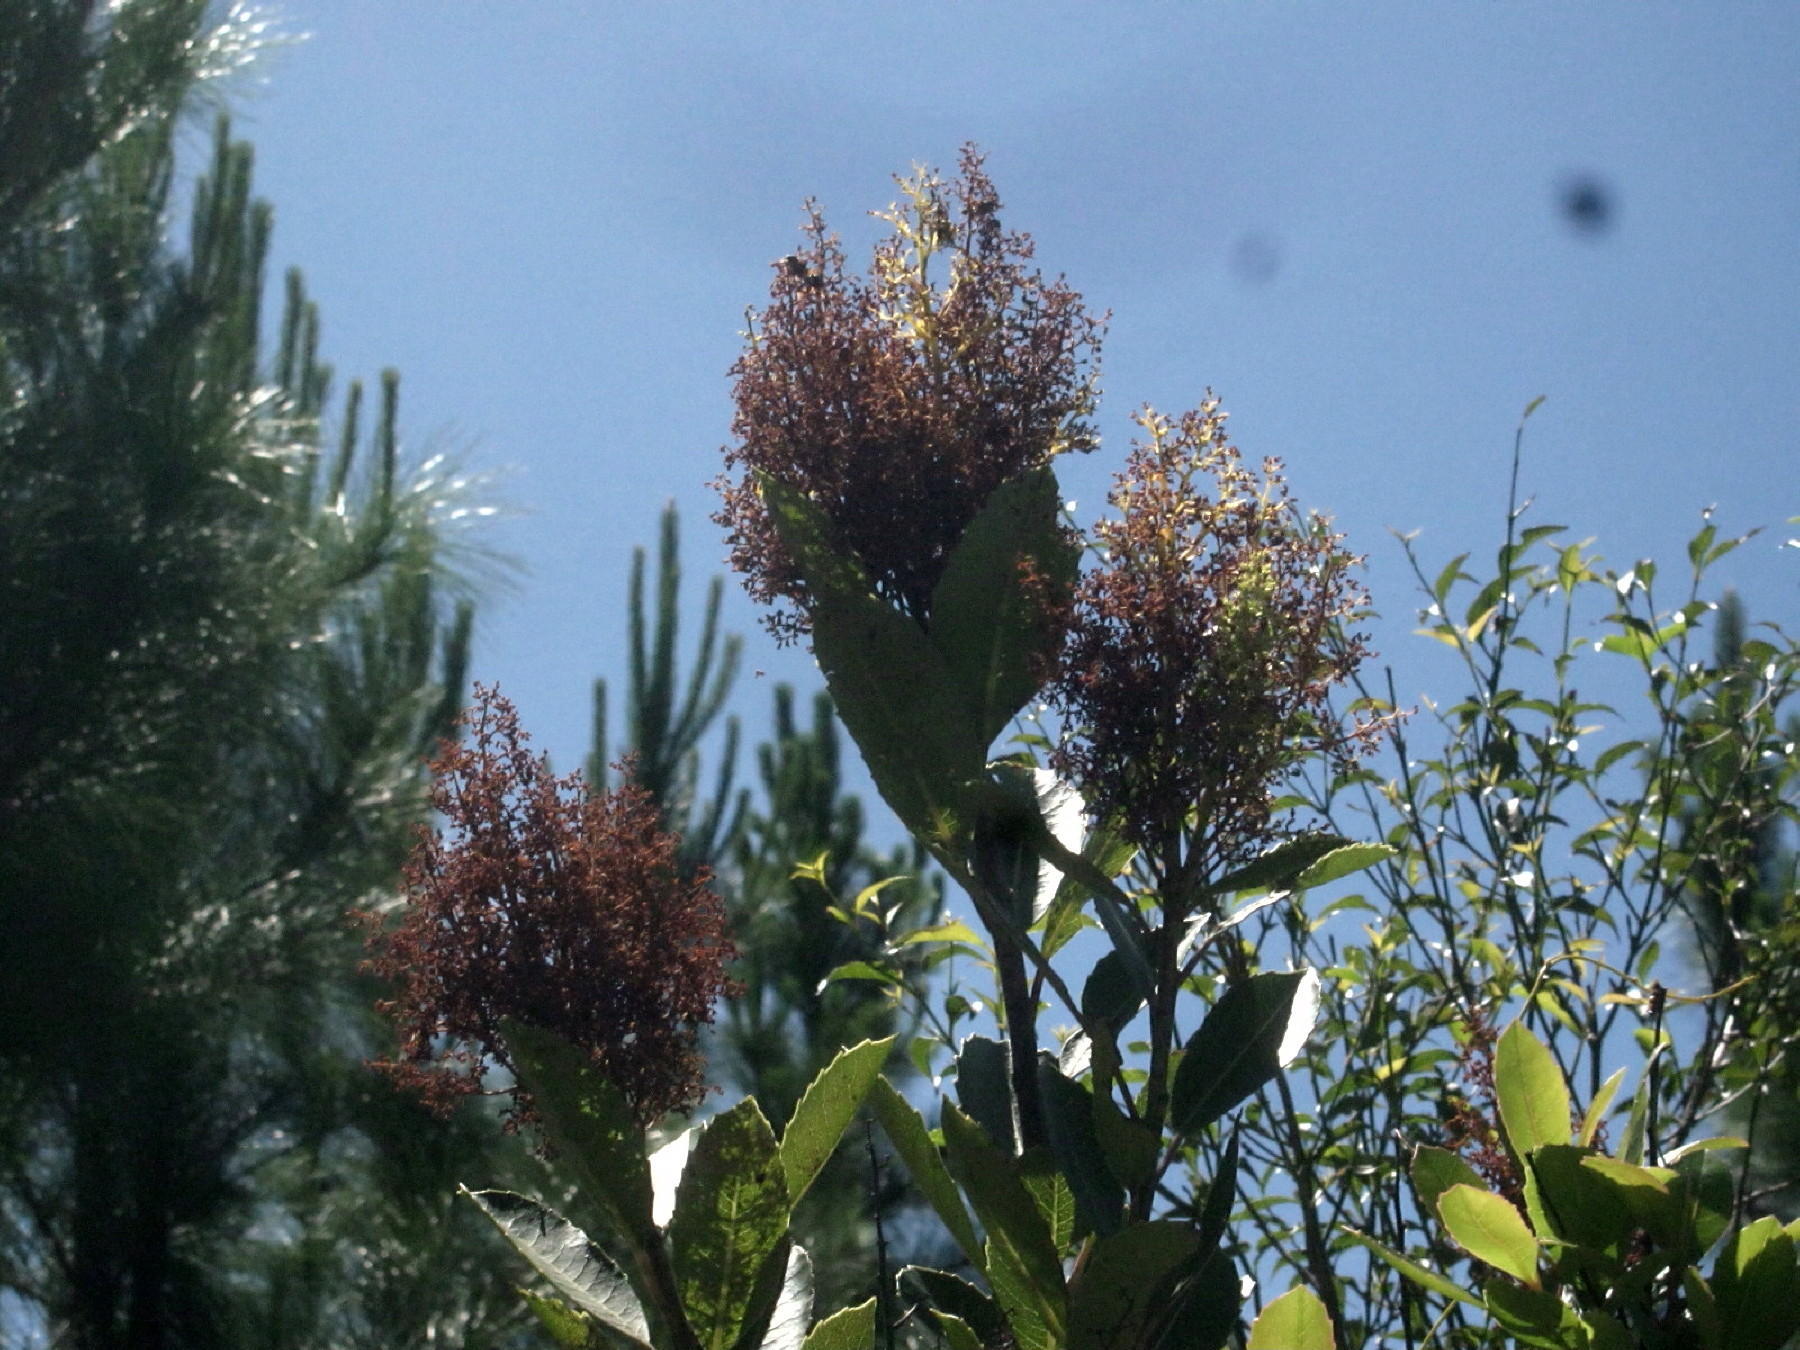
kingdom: Plantae
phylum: Tracheophyta
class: Magnoliopsida
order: Sapindales
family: Anacardiaceae
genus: Laurophyllus
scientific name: Laurophyllus capensis
